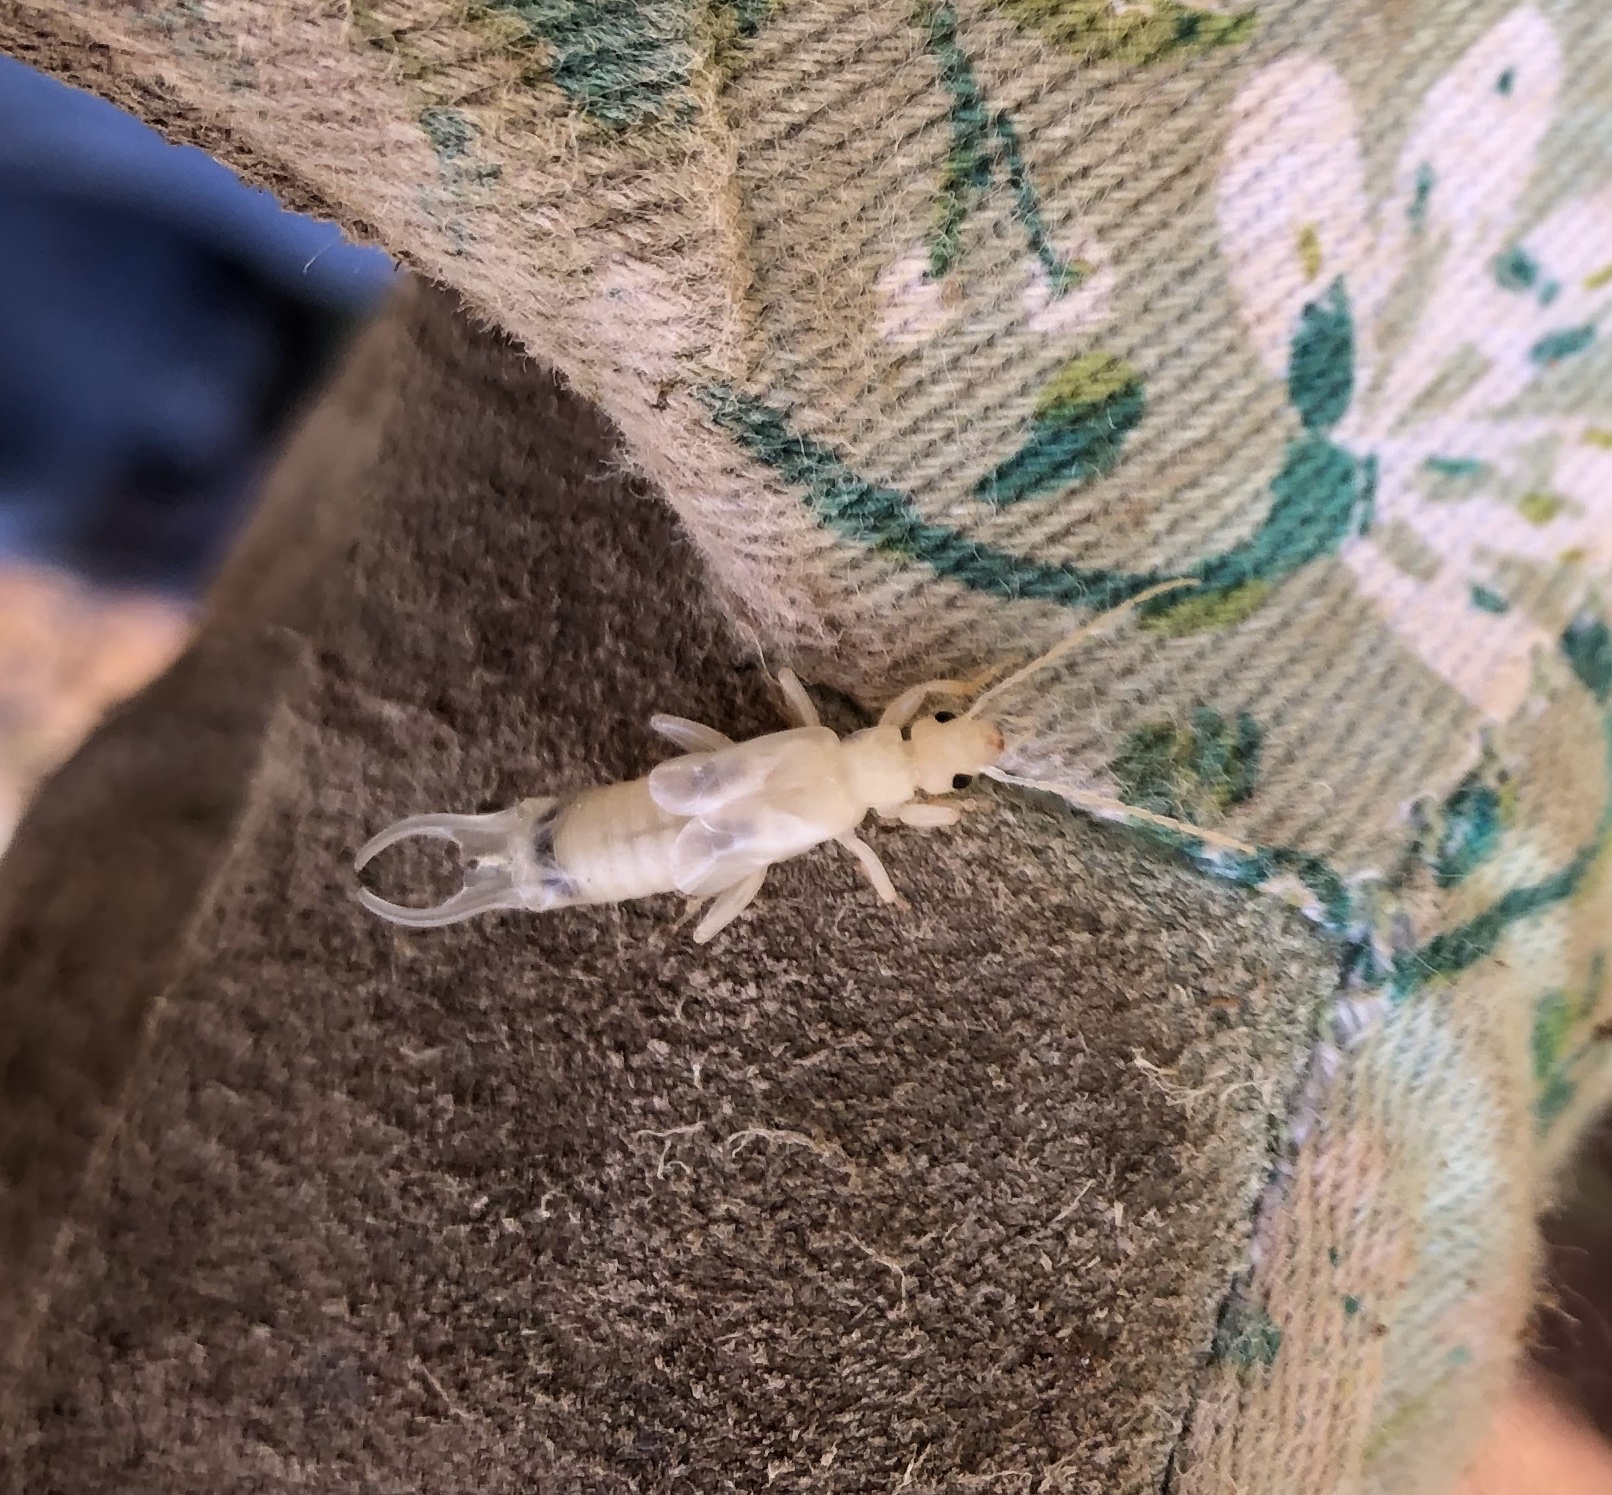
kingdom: Animalia
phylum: Arthropoda
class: Insecta
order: Dermaptera
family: Forficulidae
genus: Forficula
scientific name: Forficula
